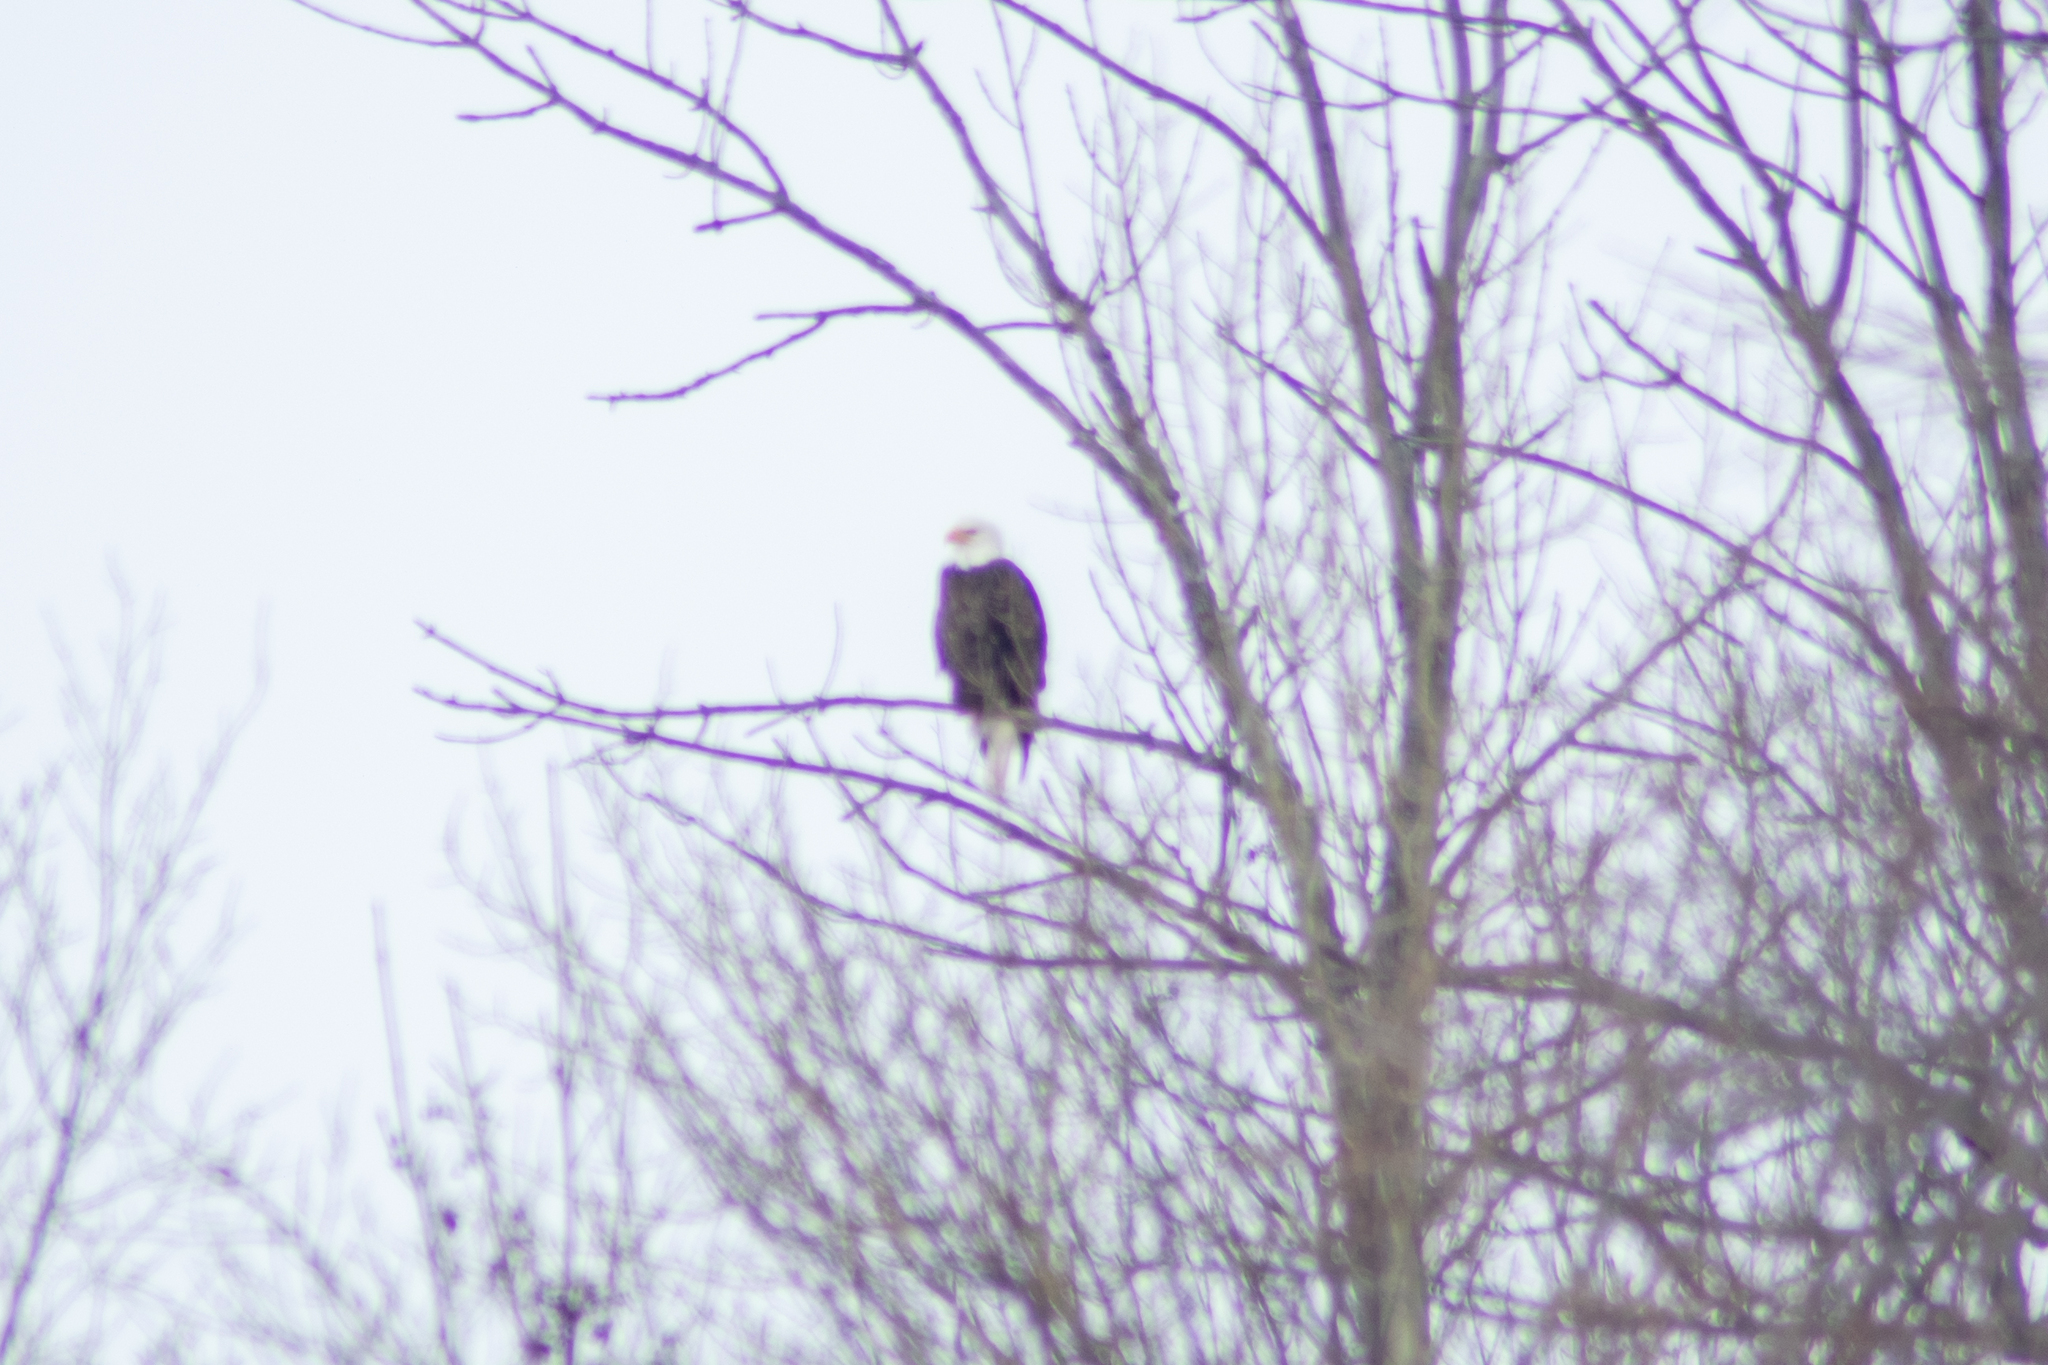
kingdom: Animalia
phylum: Chordata
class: Aves
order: Accipitriformes
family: Accipitridae
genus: Haliaeetus
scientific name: Haliaeetus leucocephalus
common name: Bald eagle
